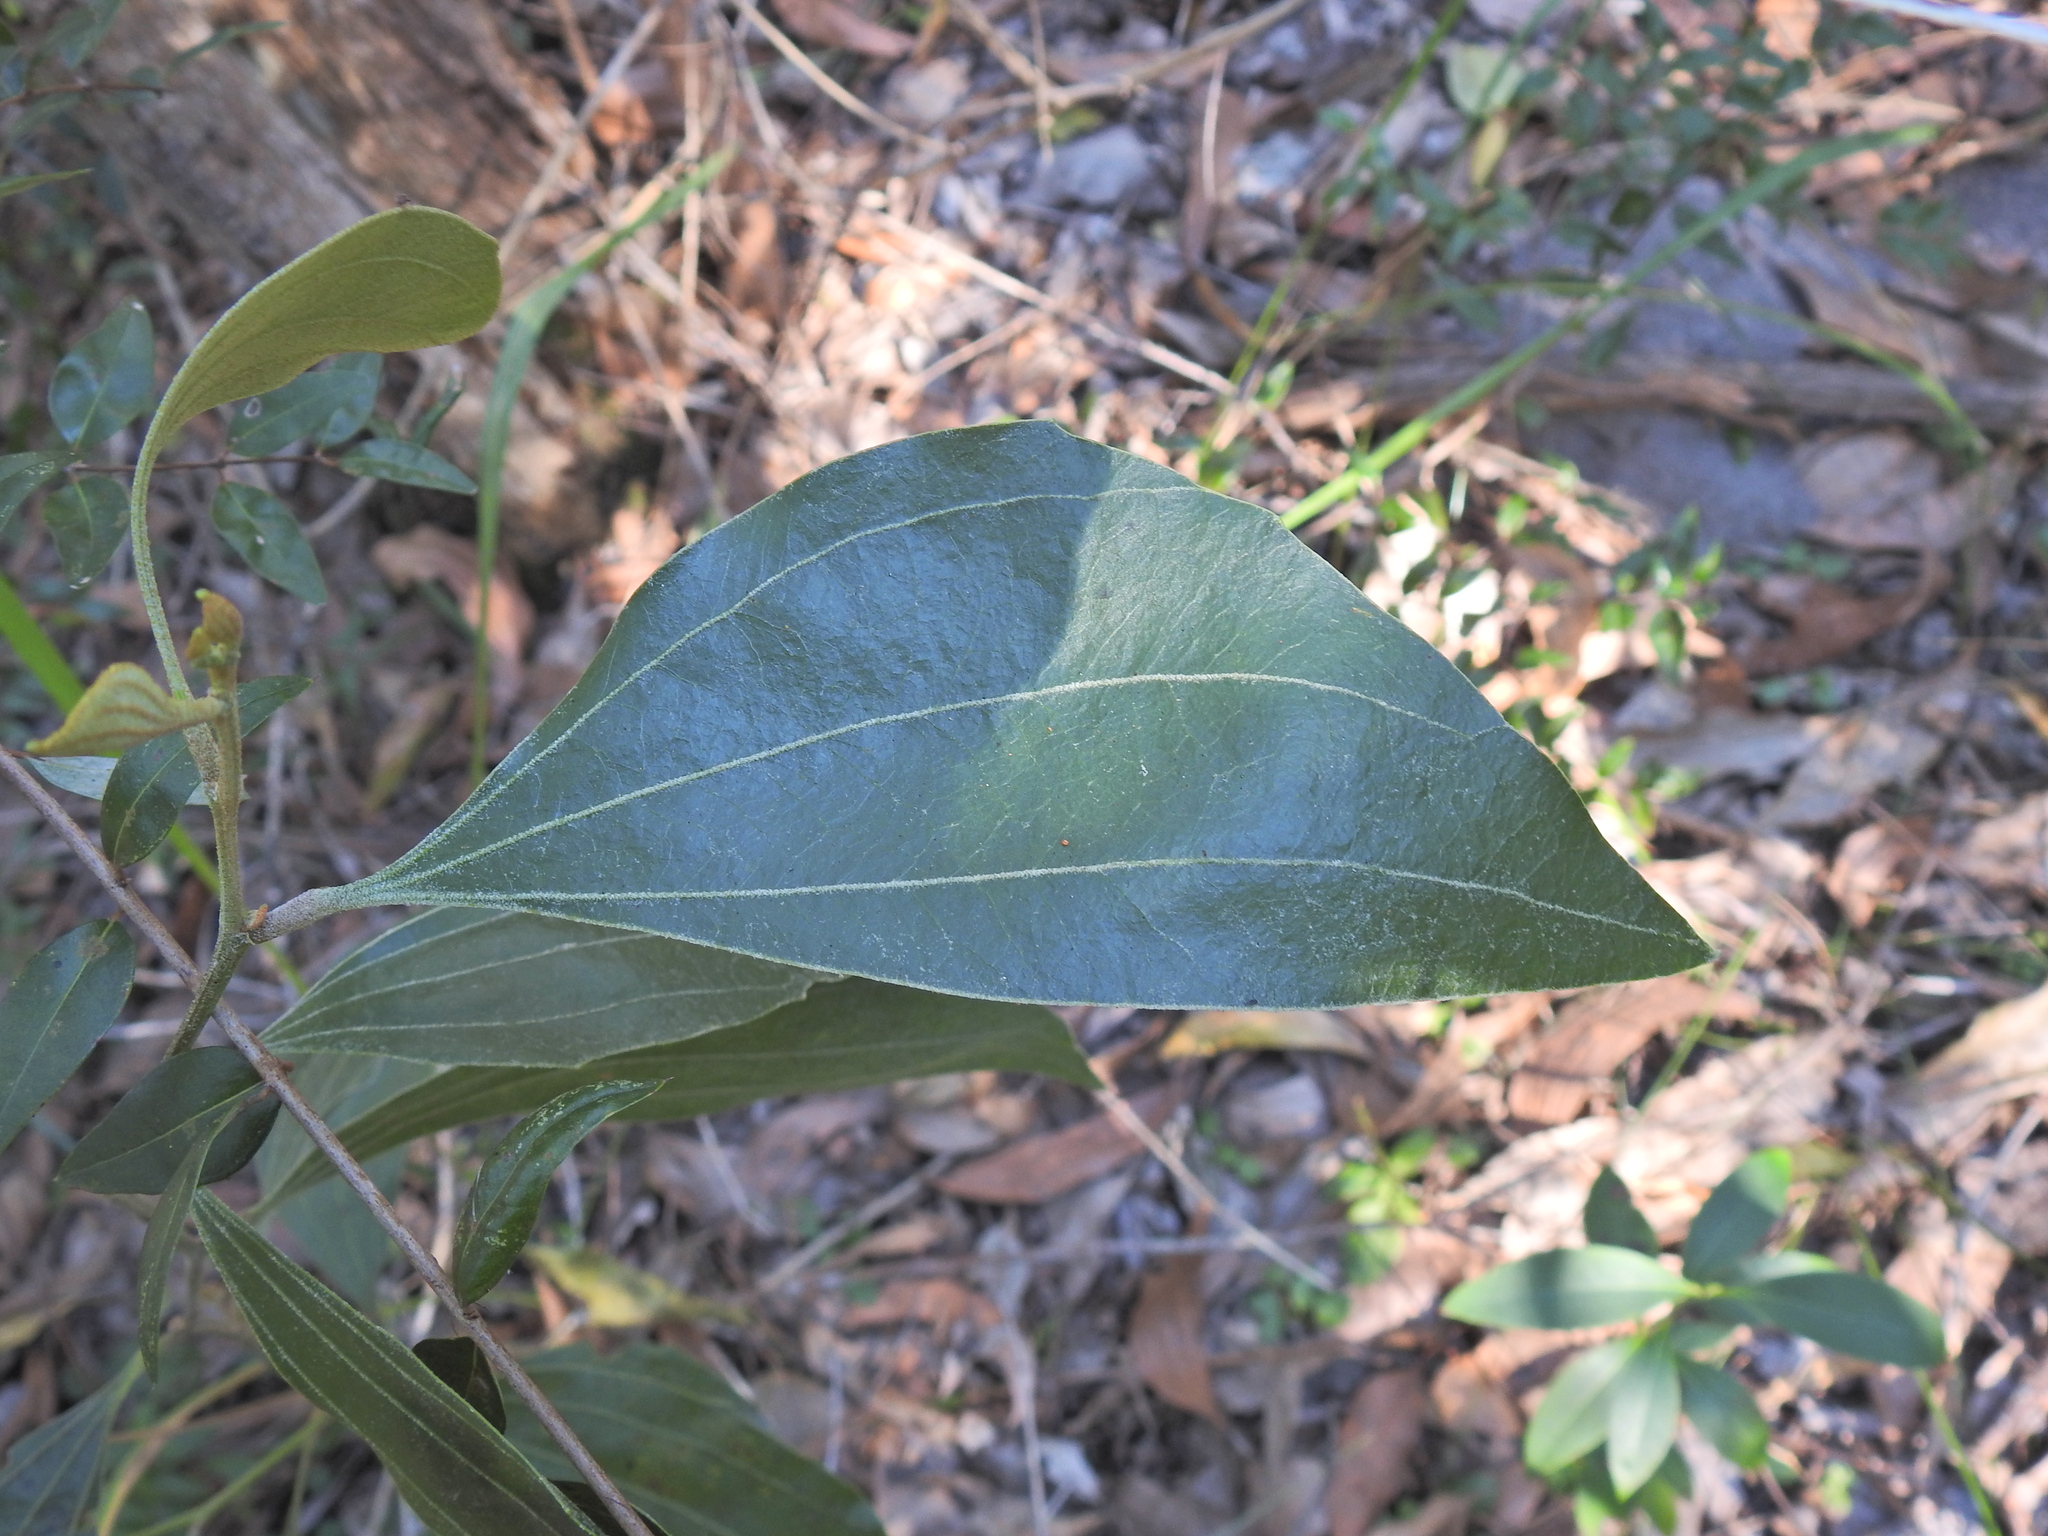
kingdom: Plantae
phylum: Tracheophyta
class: Magnoliopsida
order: Fabales
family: Fabaceae
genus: Acacia
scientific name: Acacia flavescens
